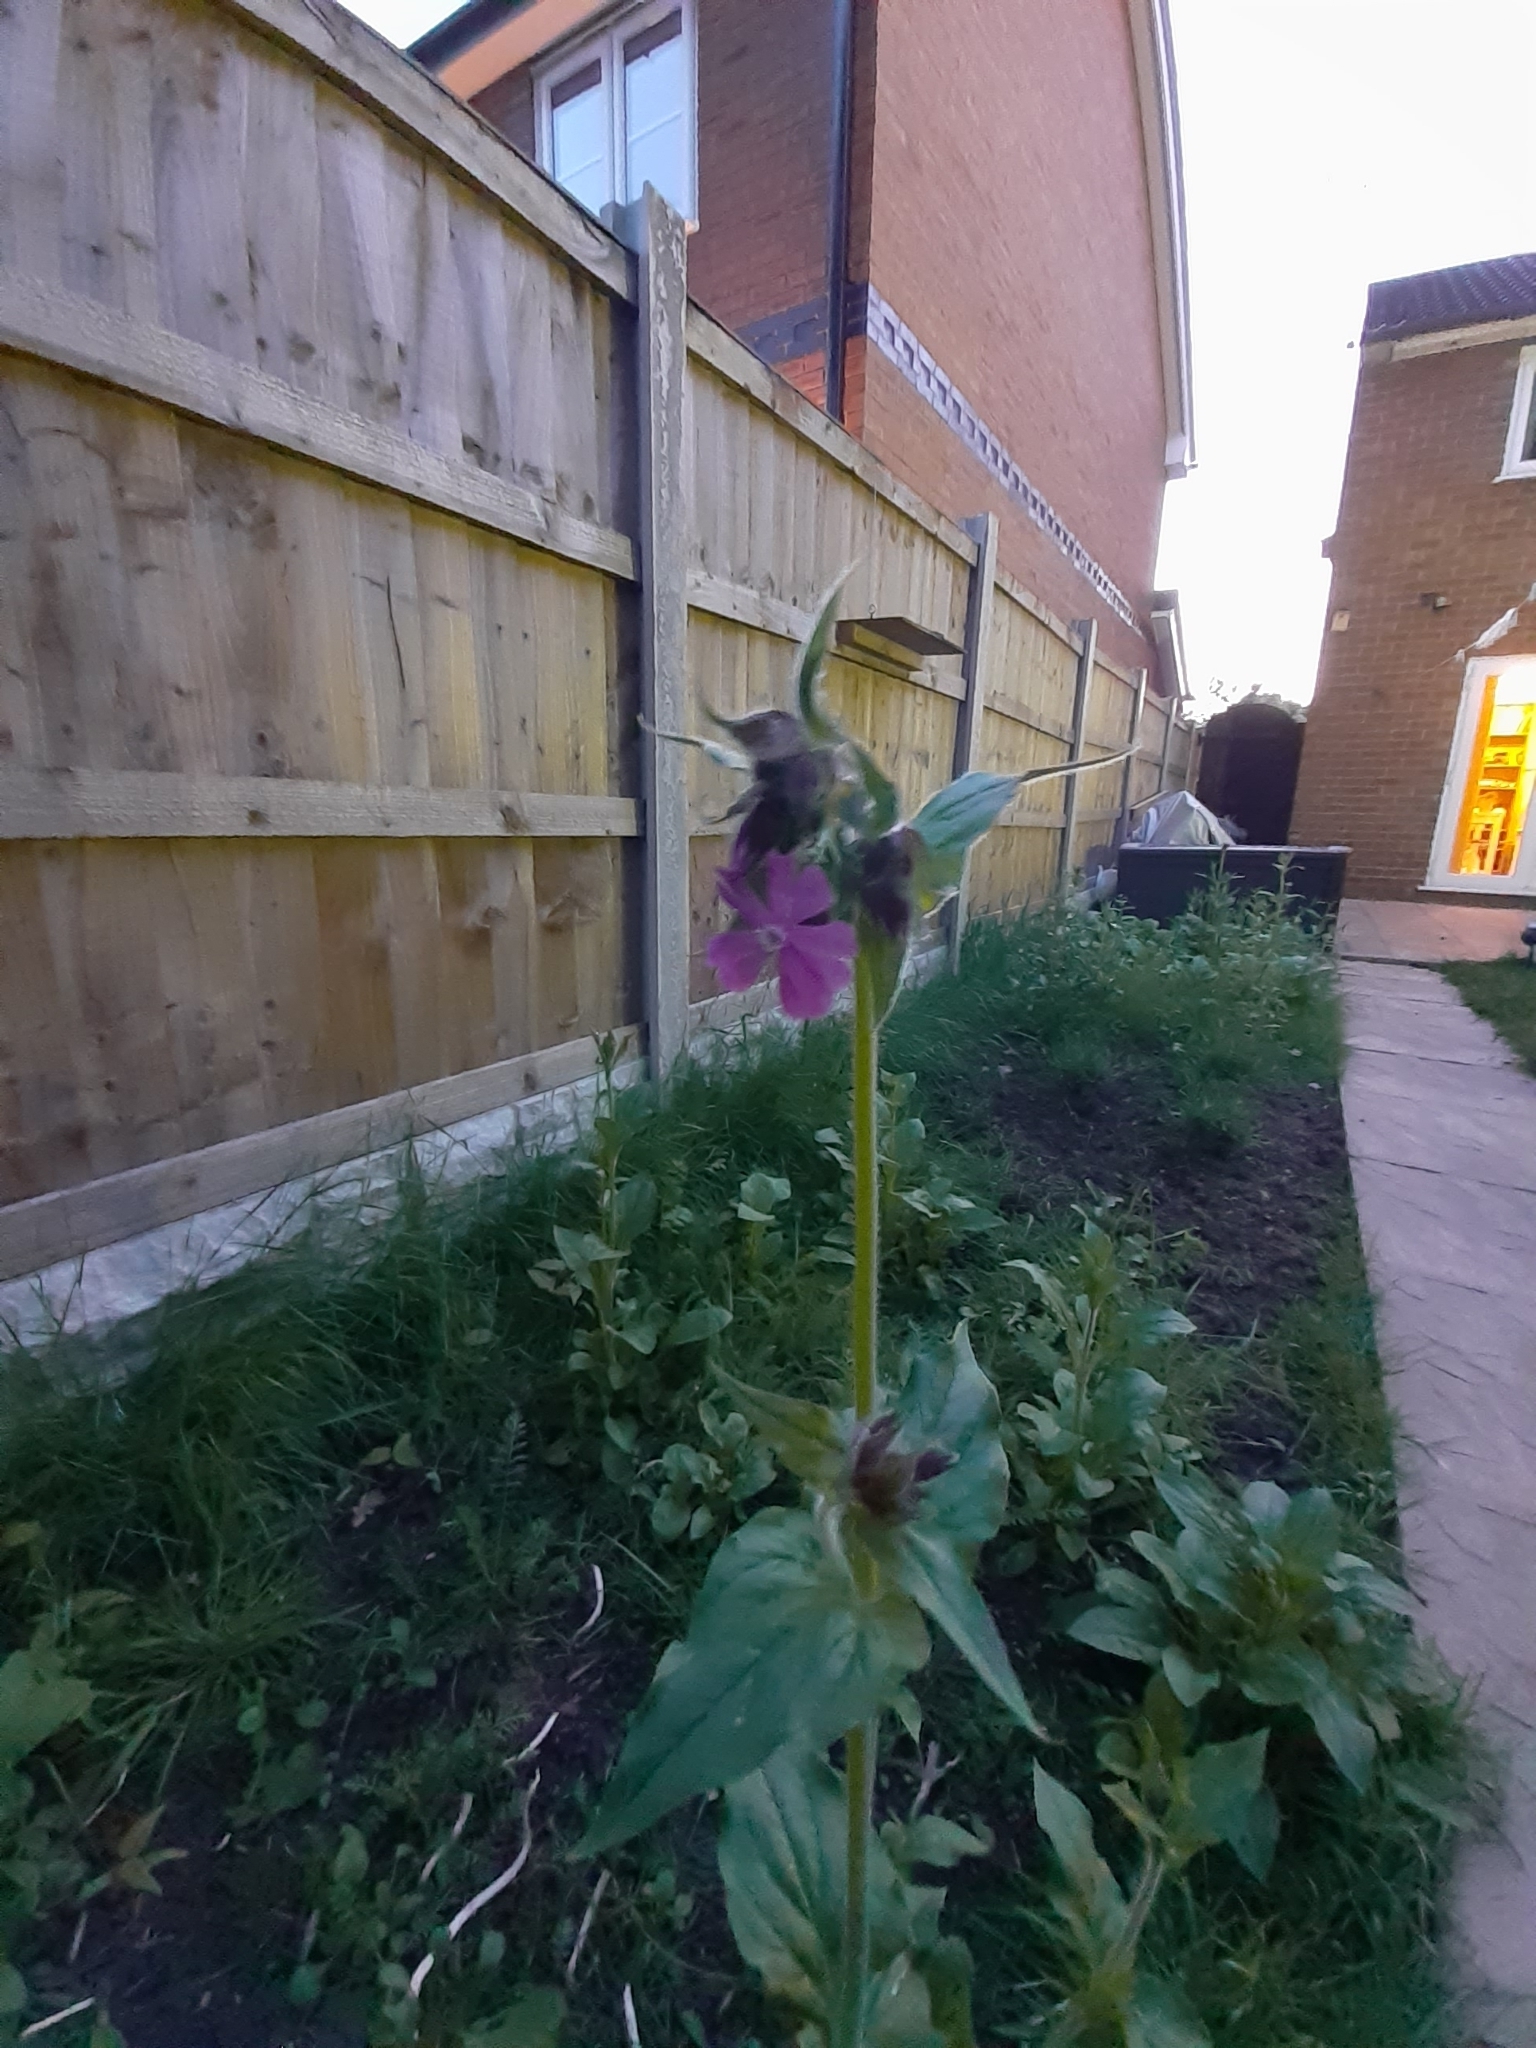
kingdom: Plantae
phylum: Tracheophyta
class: Magnoliopsida
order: Caryophyllales
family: Caryophyllaceae
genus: Silene
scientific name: Silene dioica
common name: Red campion
